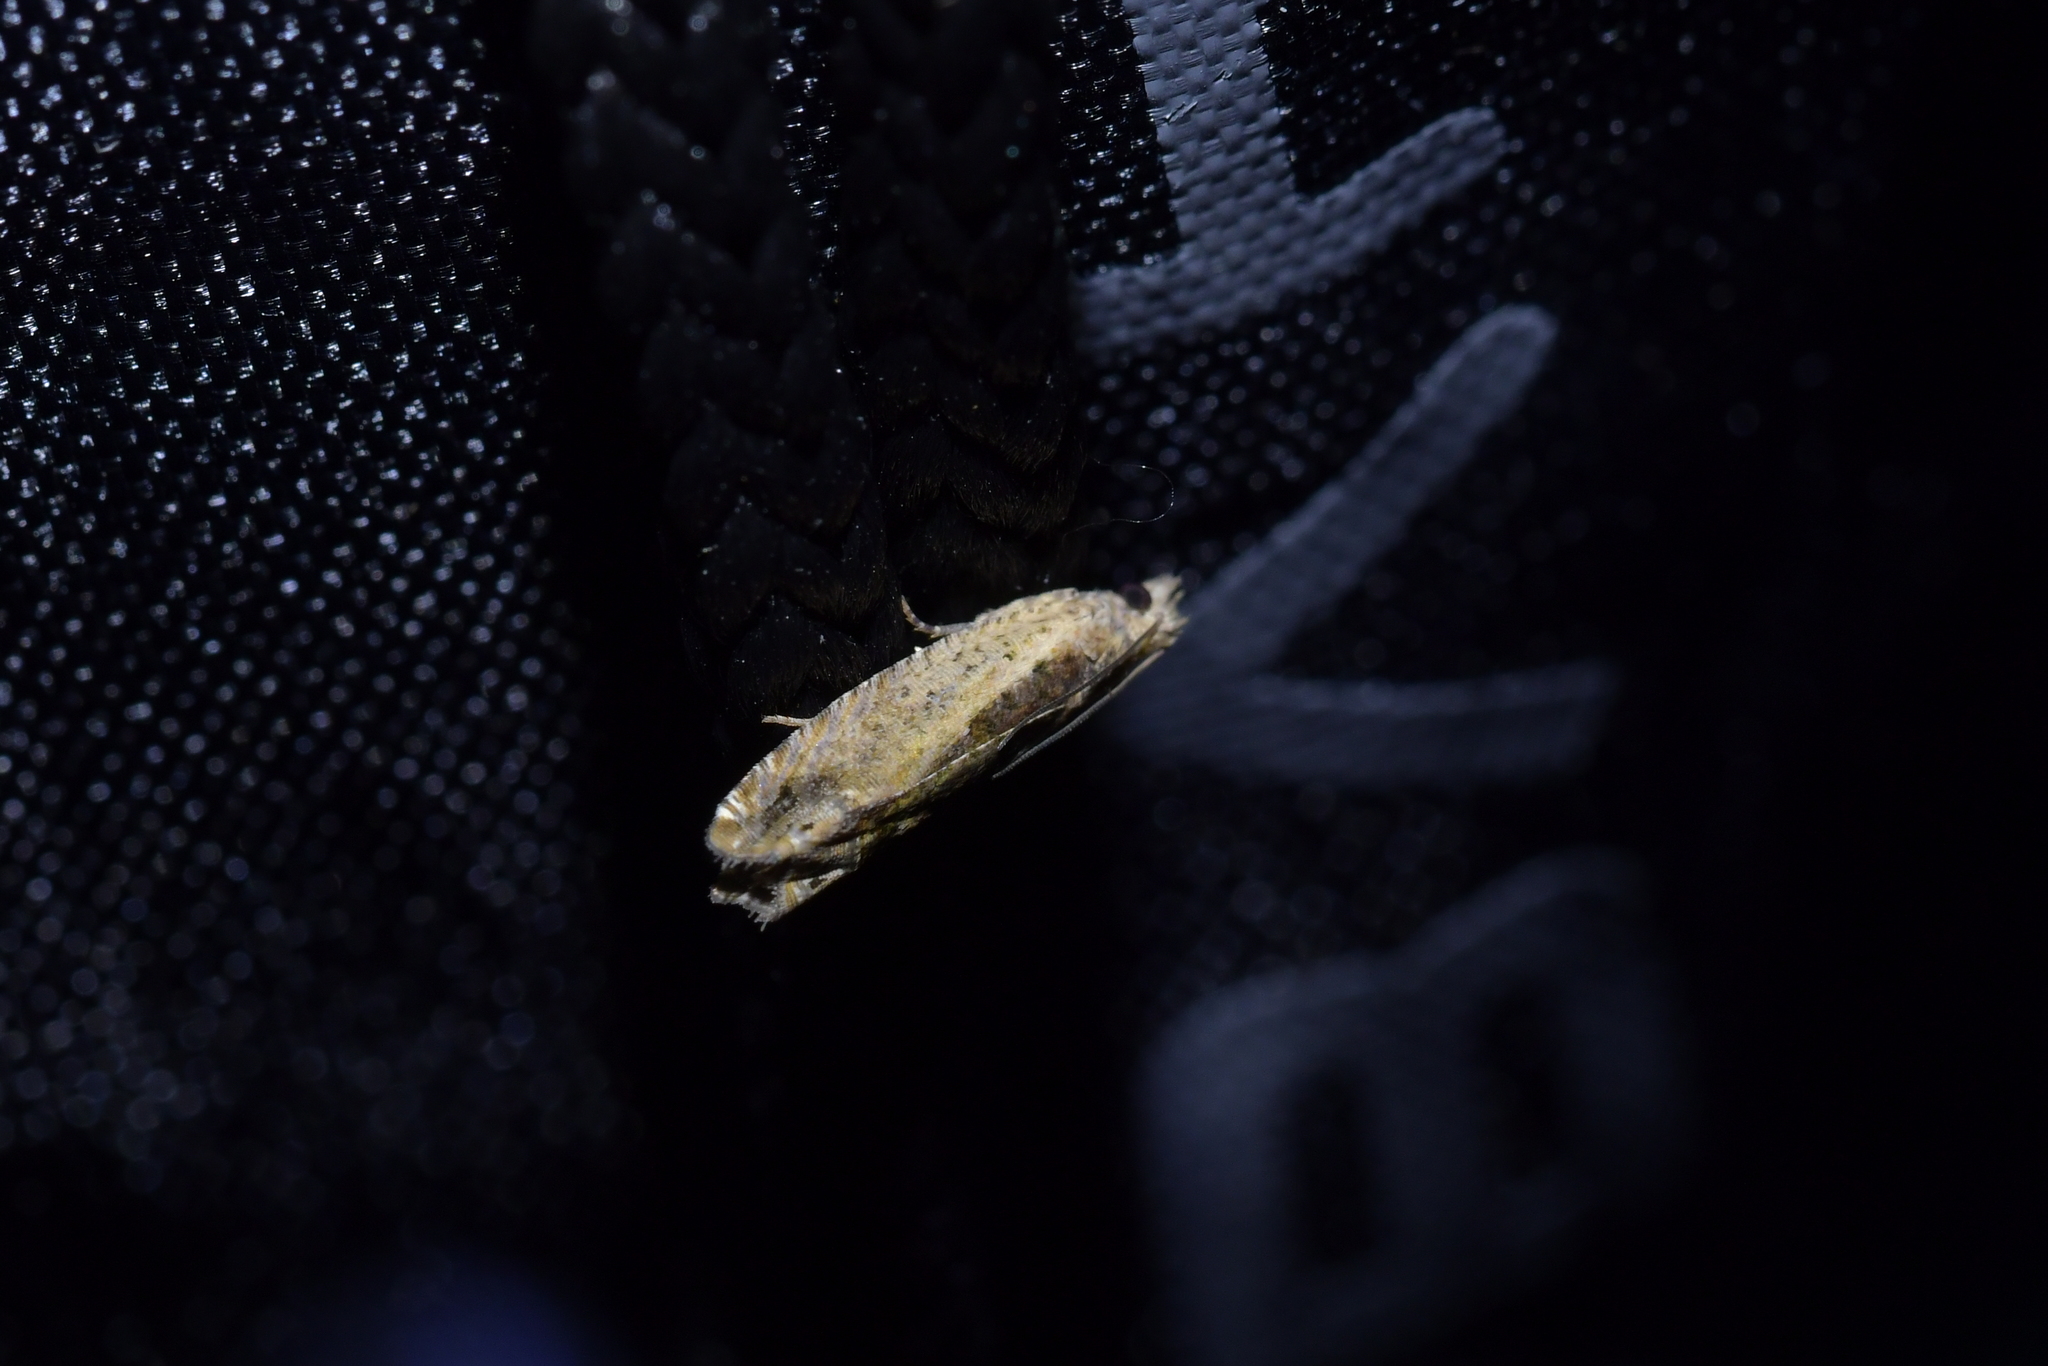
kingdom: Animalia
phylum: Arthropoda
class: Insecta
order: Lepidoptera
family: Tortricidae
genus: Cydia
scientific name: Cydia succedana
